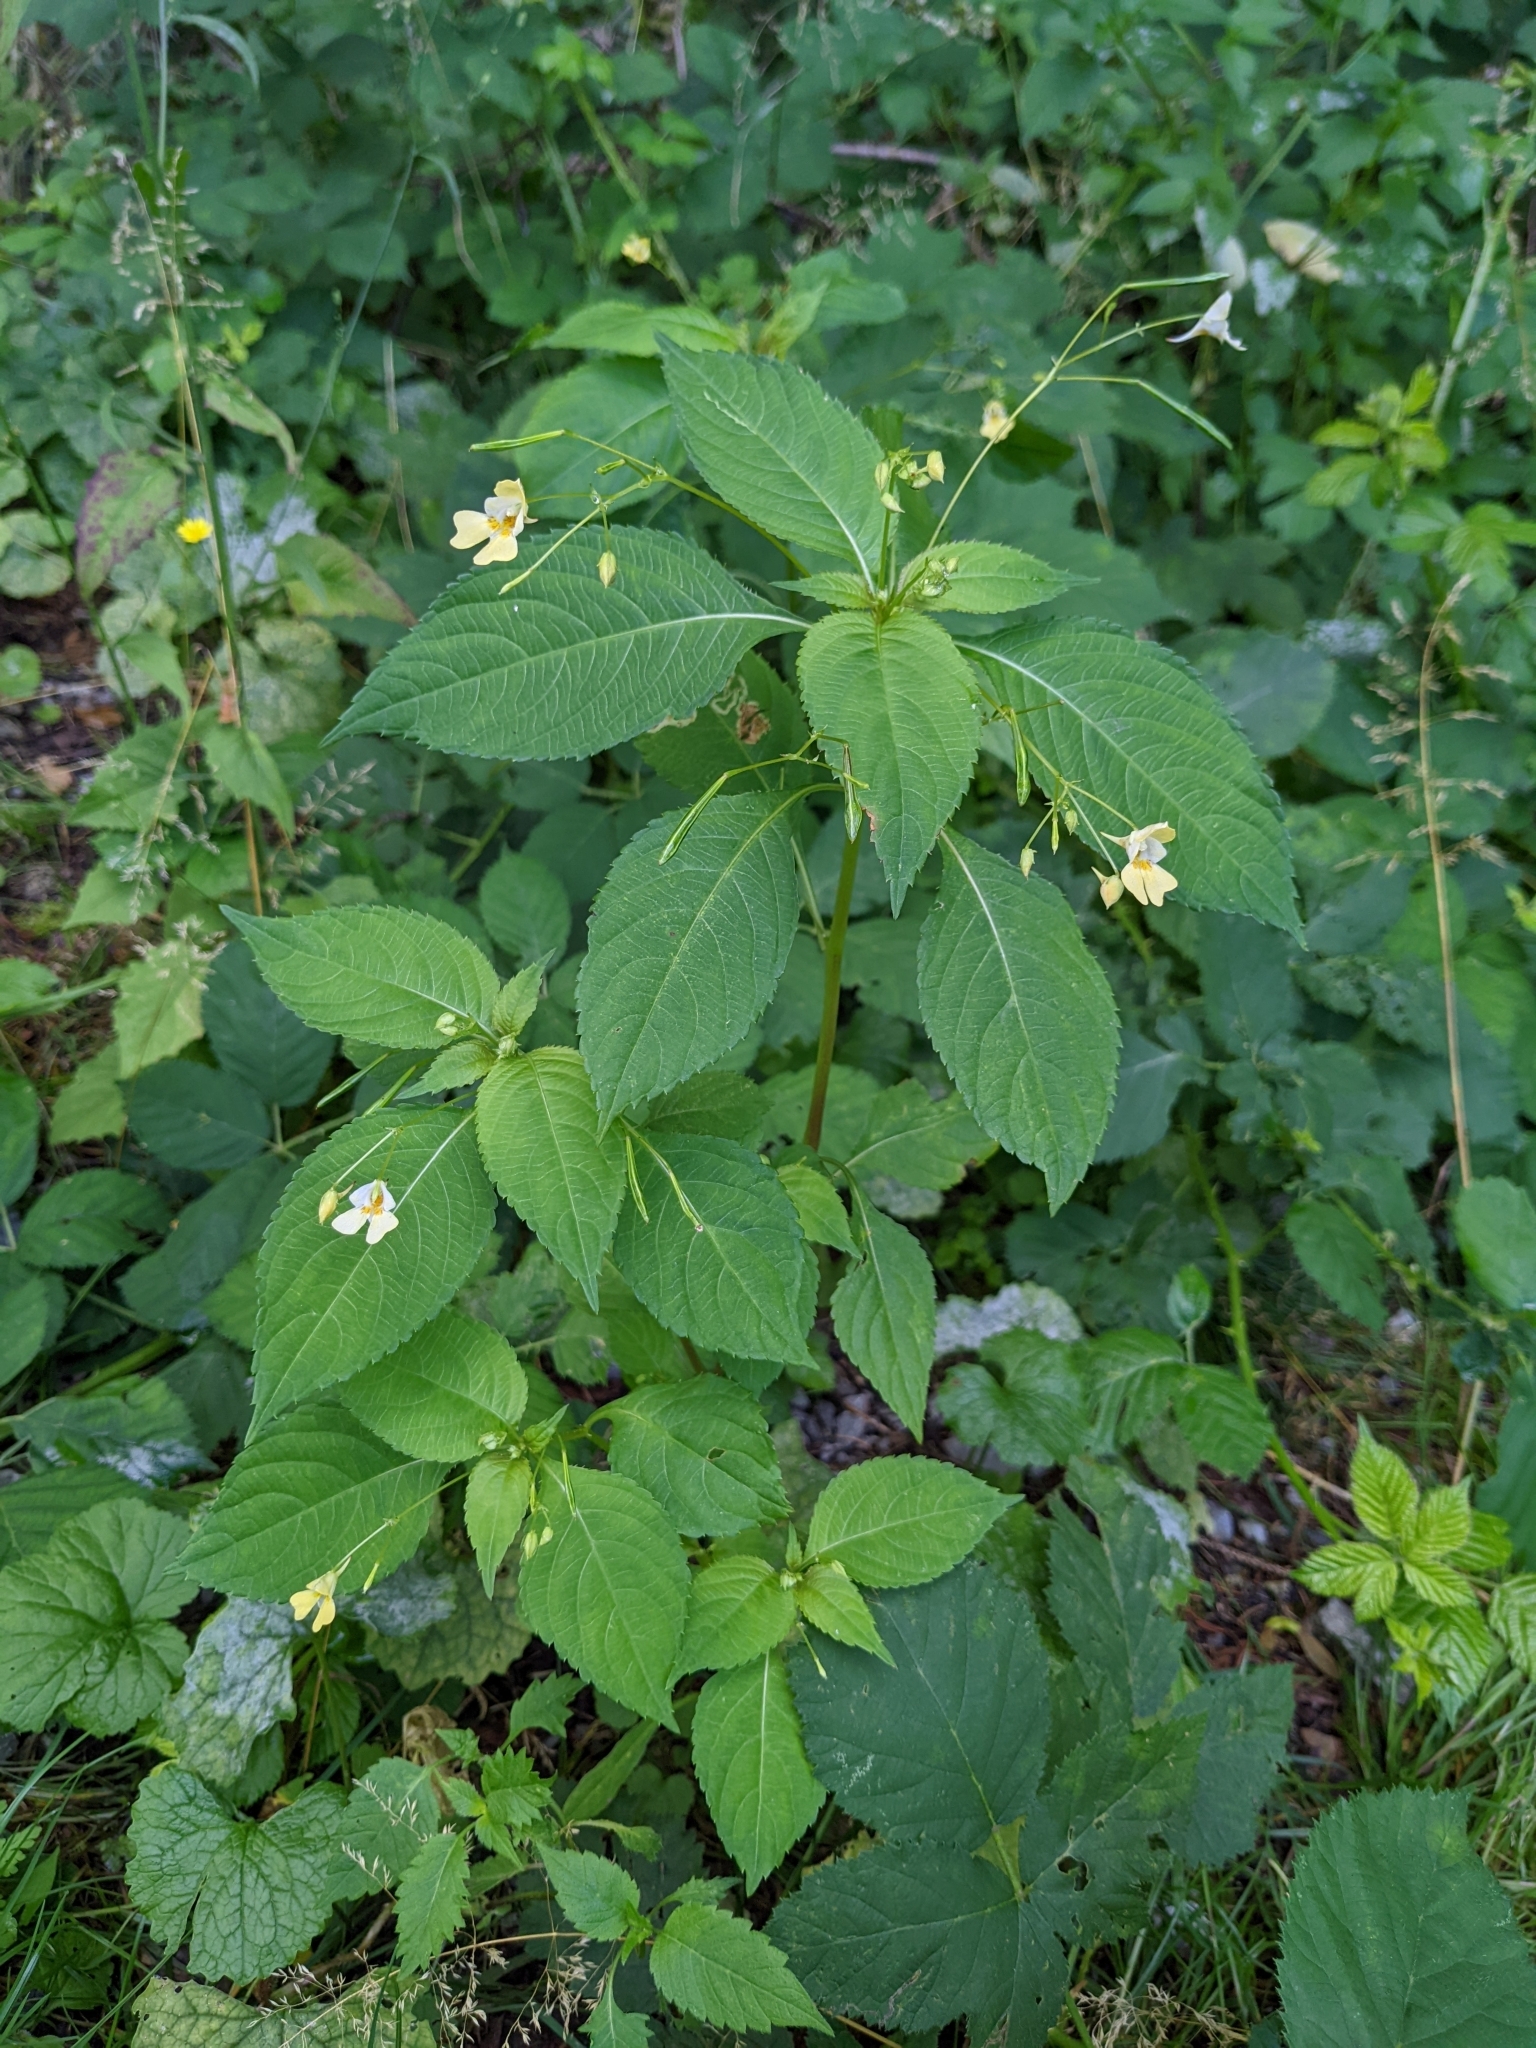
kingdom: Plantae
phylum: Tracheophyta
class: Magnoliopsida
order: Ericales
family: Balsaminaceae
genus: Impatiens
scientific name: Impatiens parviflora
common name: Small balsam
